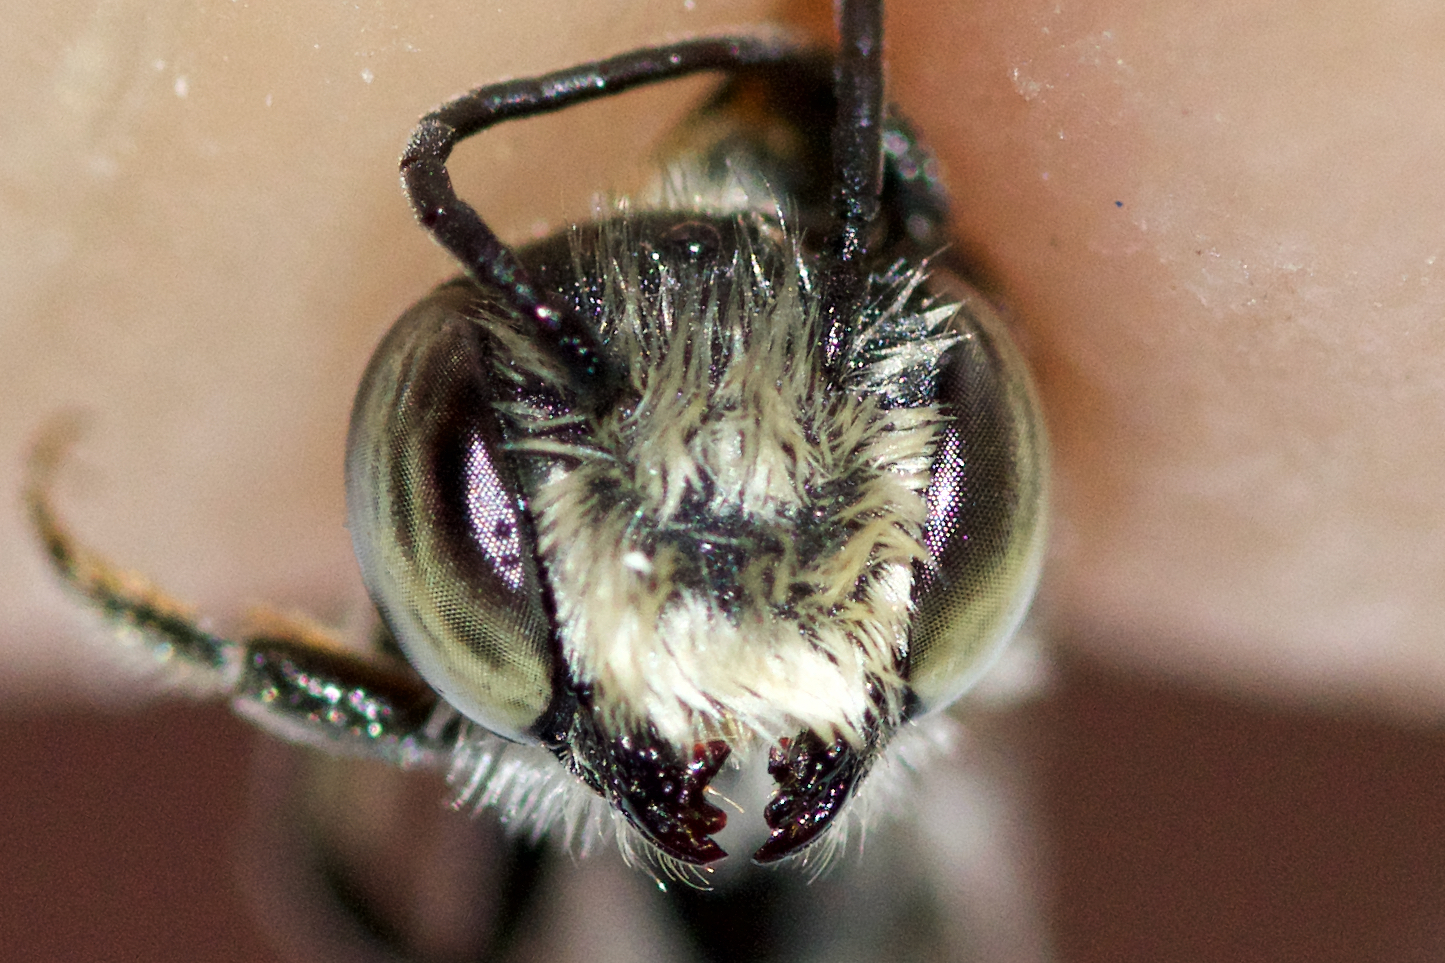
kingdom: Animalia
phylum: Arthropoda
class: Insecta
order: Hymenoptera
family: Megachilidae
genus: Megachile
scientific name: Megachile rotundata
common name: Alfalfa leafcutting bee
